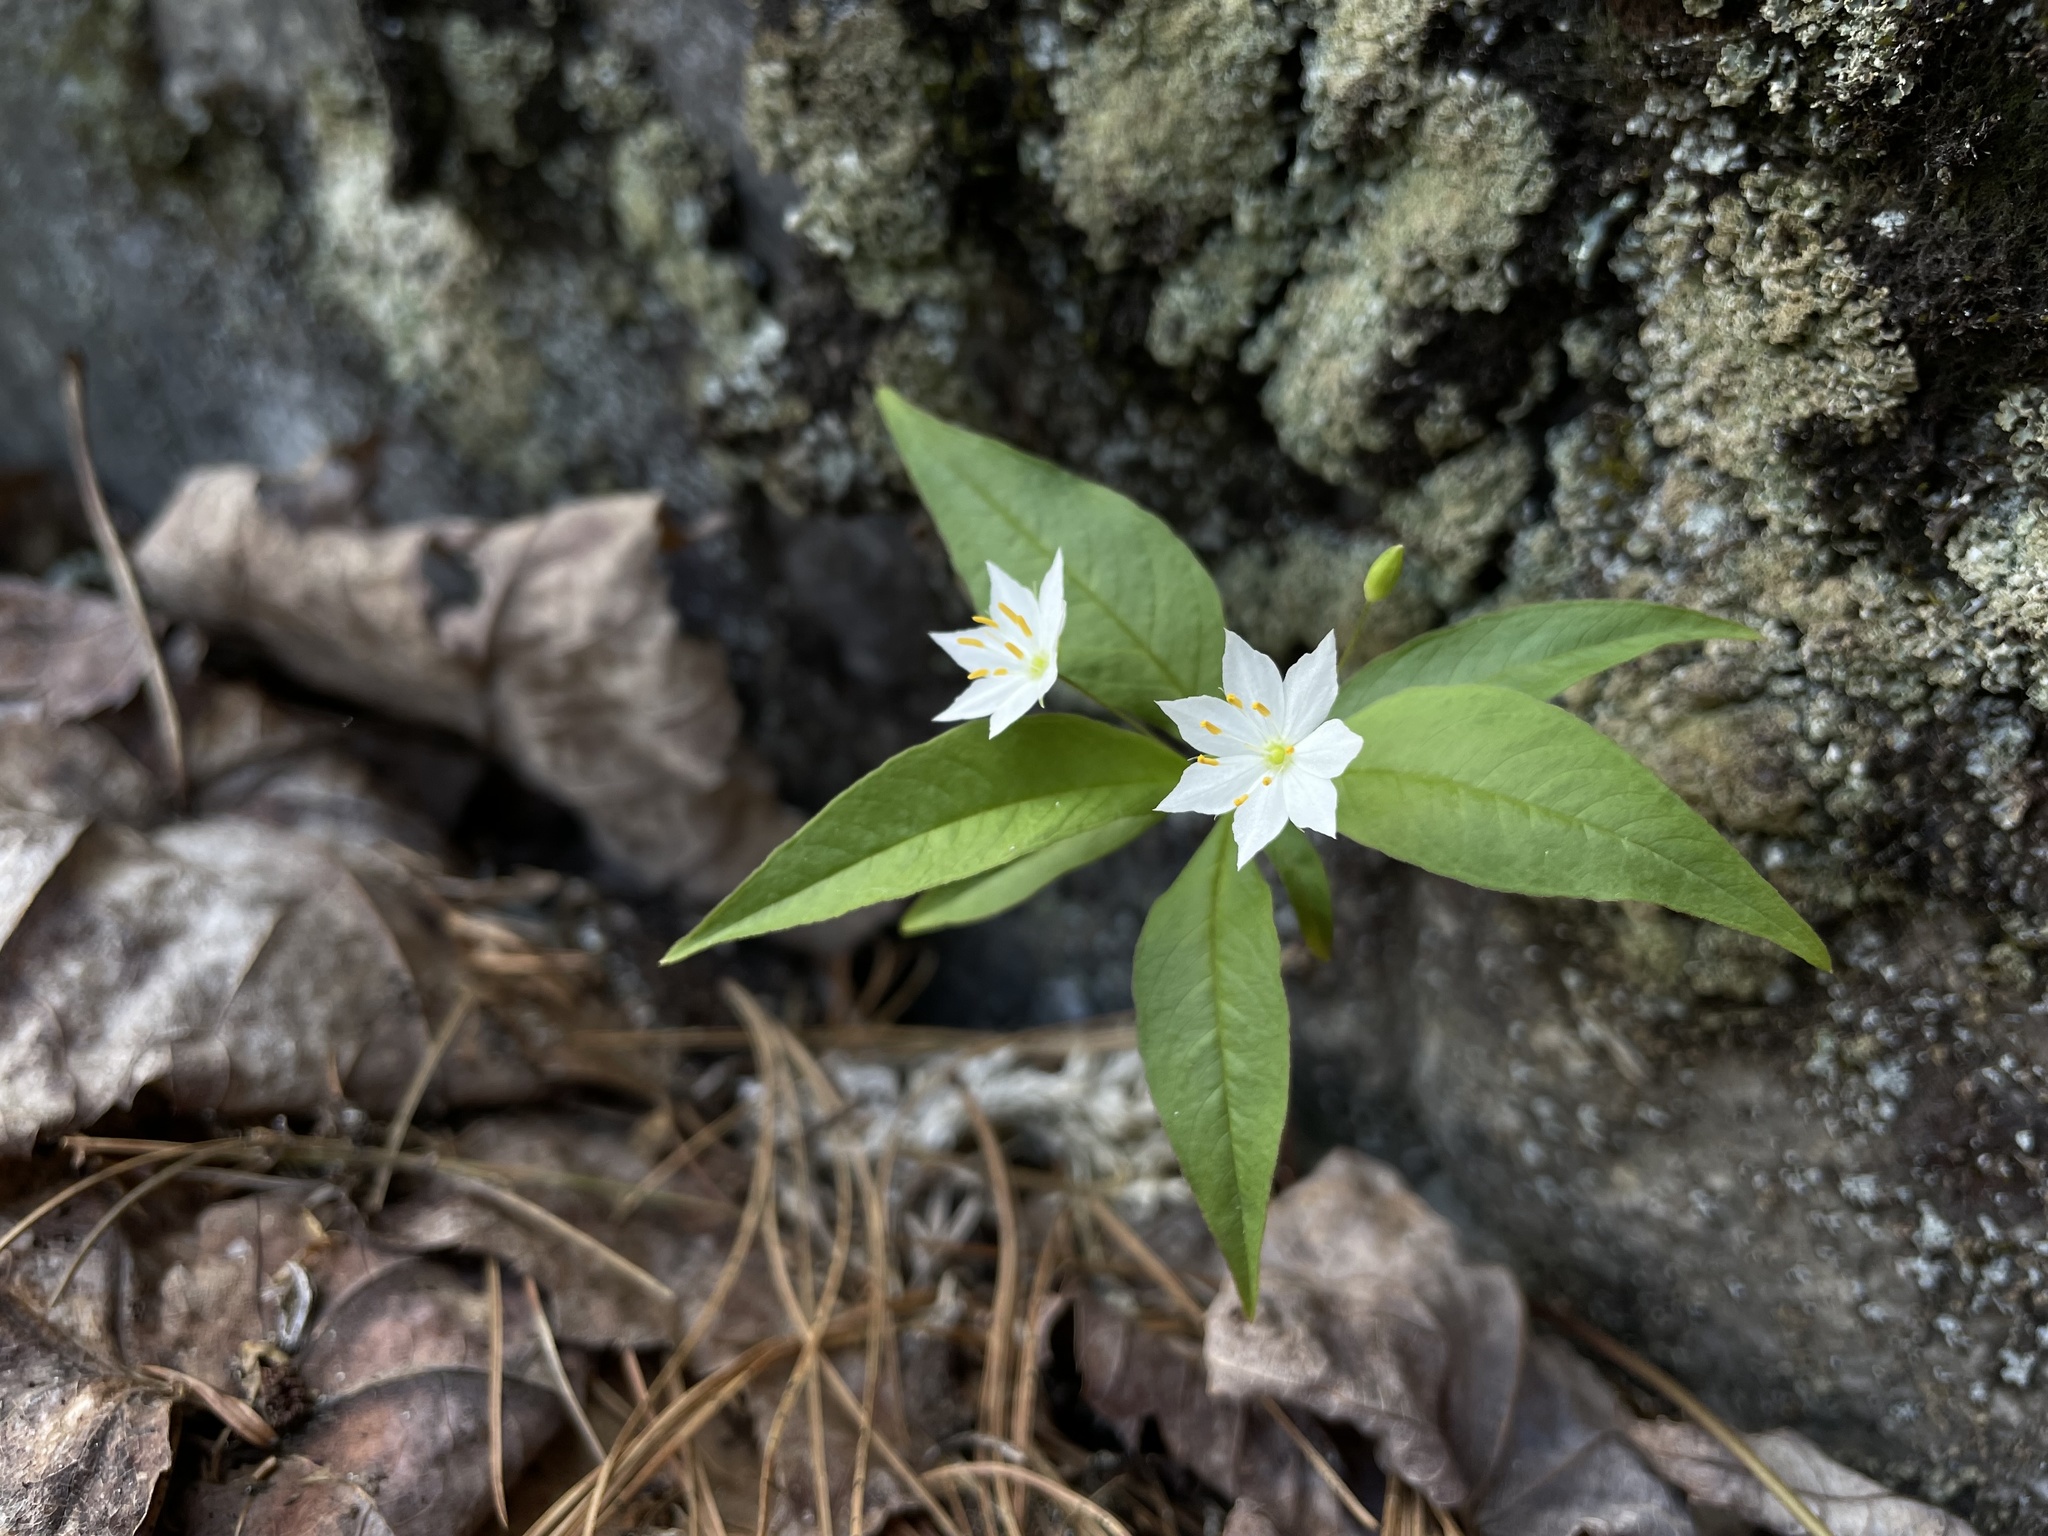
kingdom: Plantae
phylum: Tracheophyta
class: Magnoliopsida
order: Ericales
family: Primulaceae
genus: Lysimachia
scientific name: Lysimachia borealis
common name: American starflower
